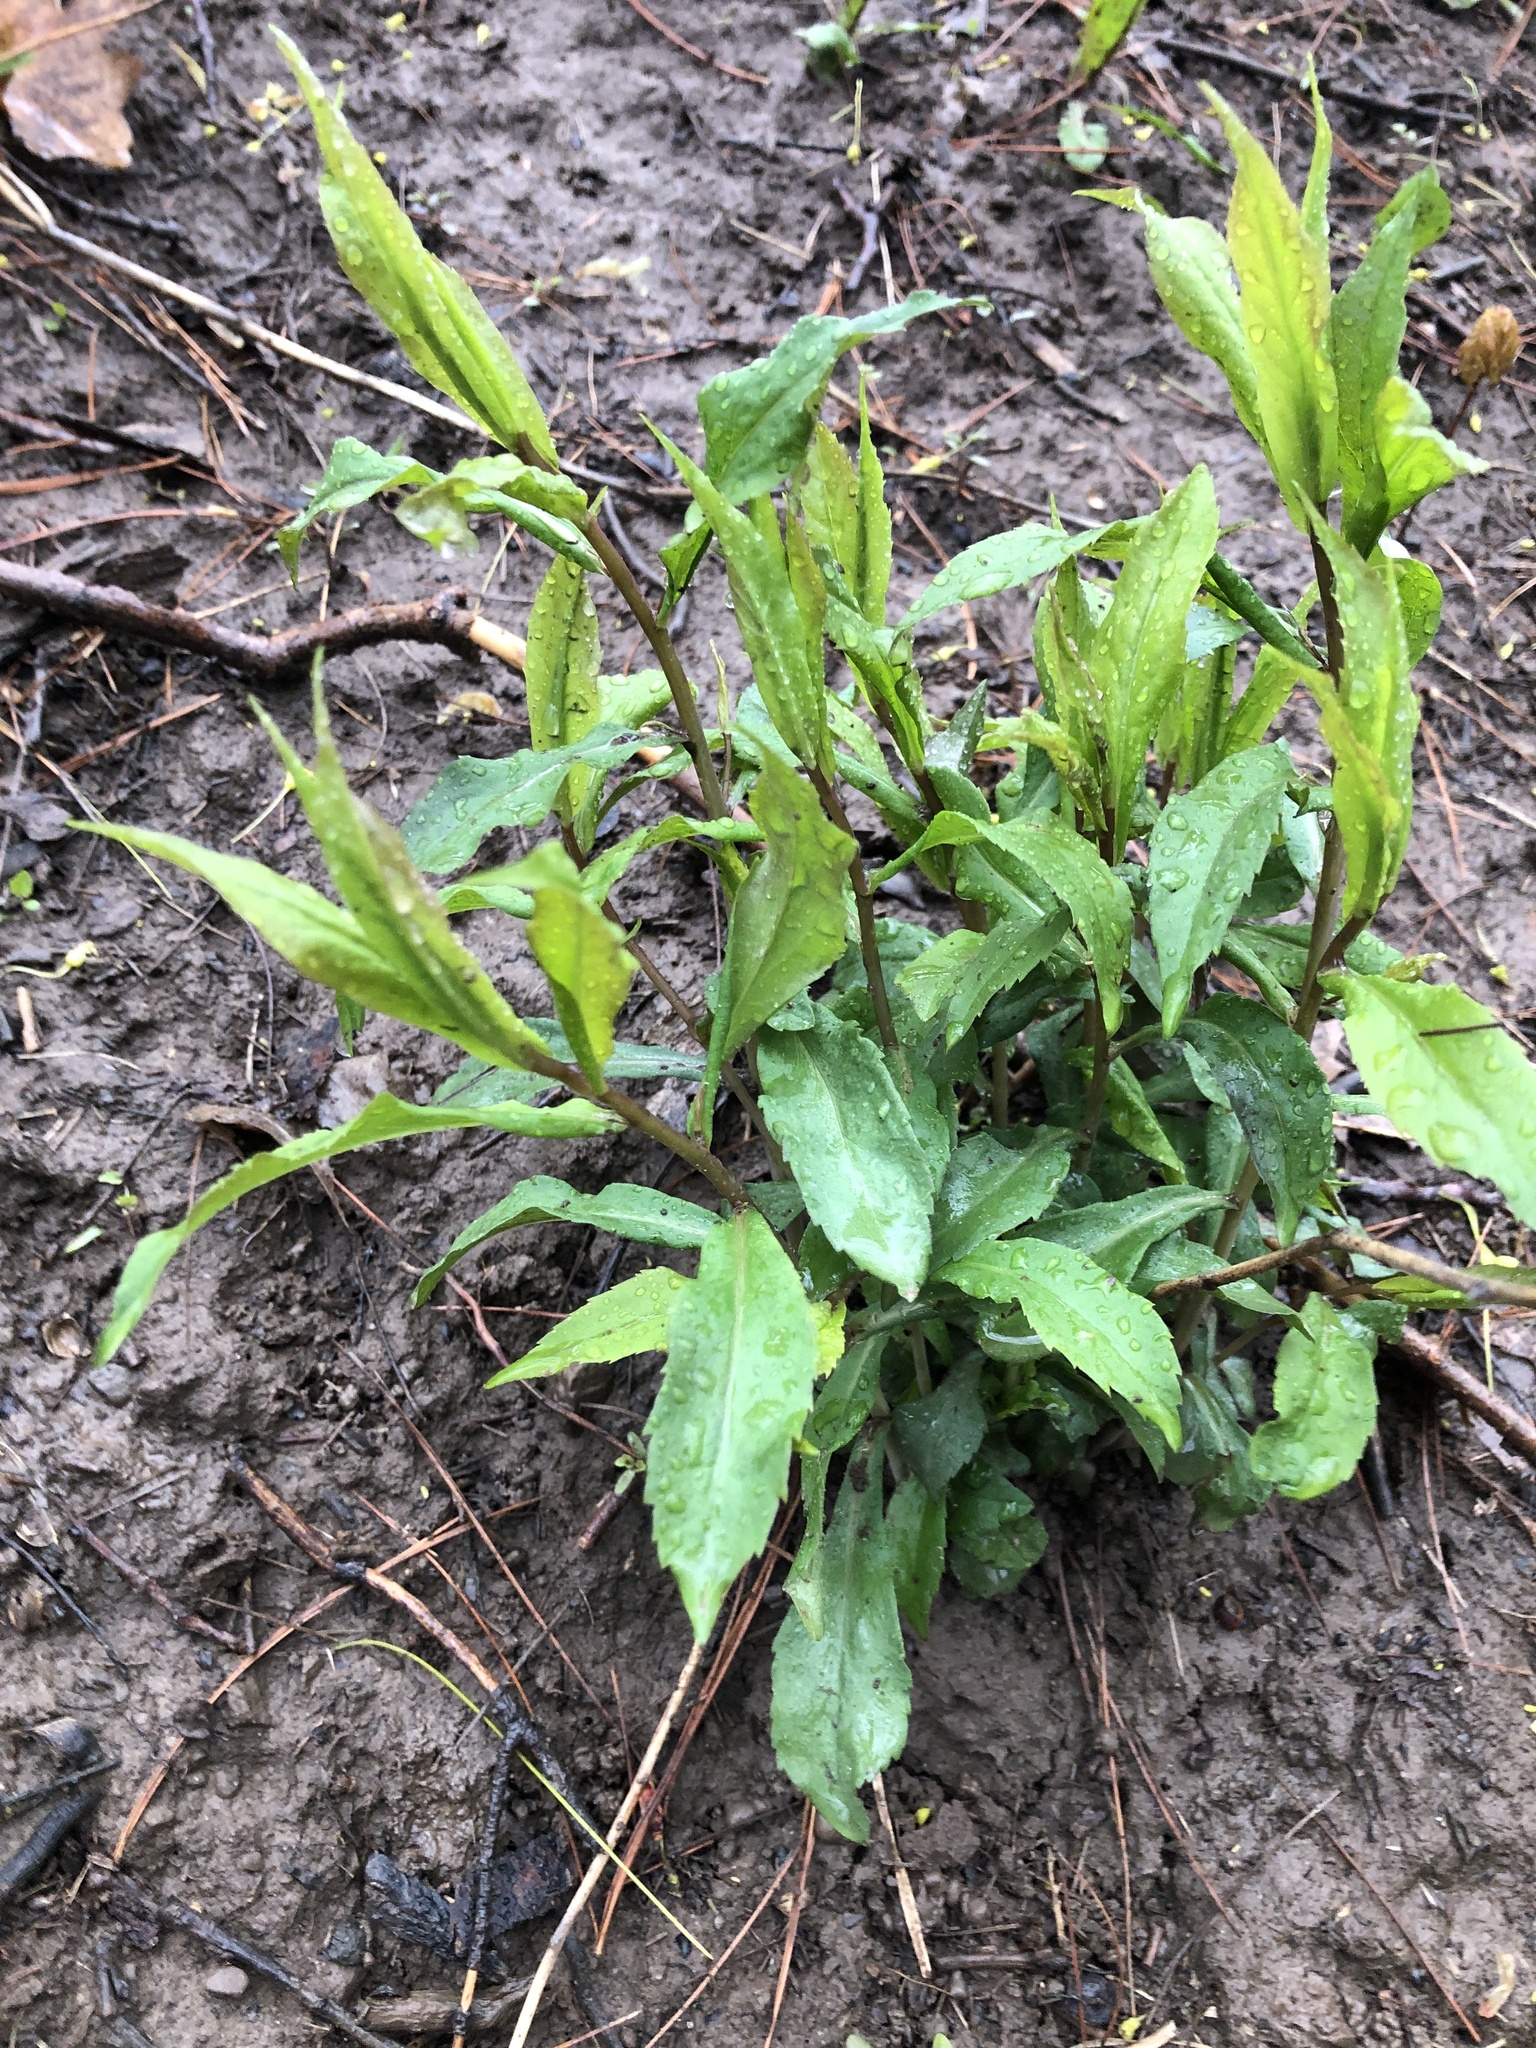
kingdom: Plantae
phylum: Tracheophyta
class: Magnoliopsida
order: Asterales
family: Asteraceae
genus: Solidago
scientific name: Solidago caesia
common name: Woodland goldenrod
